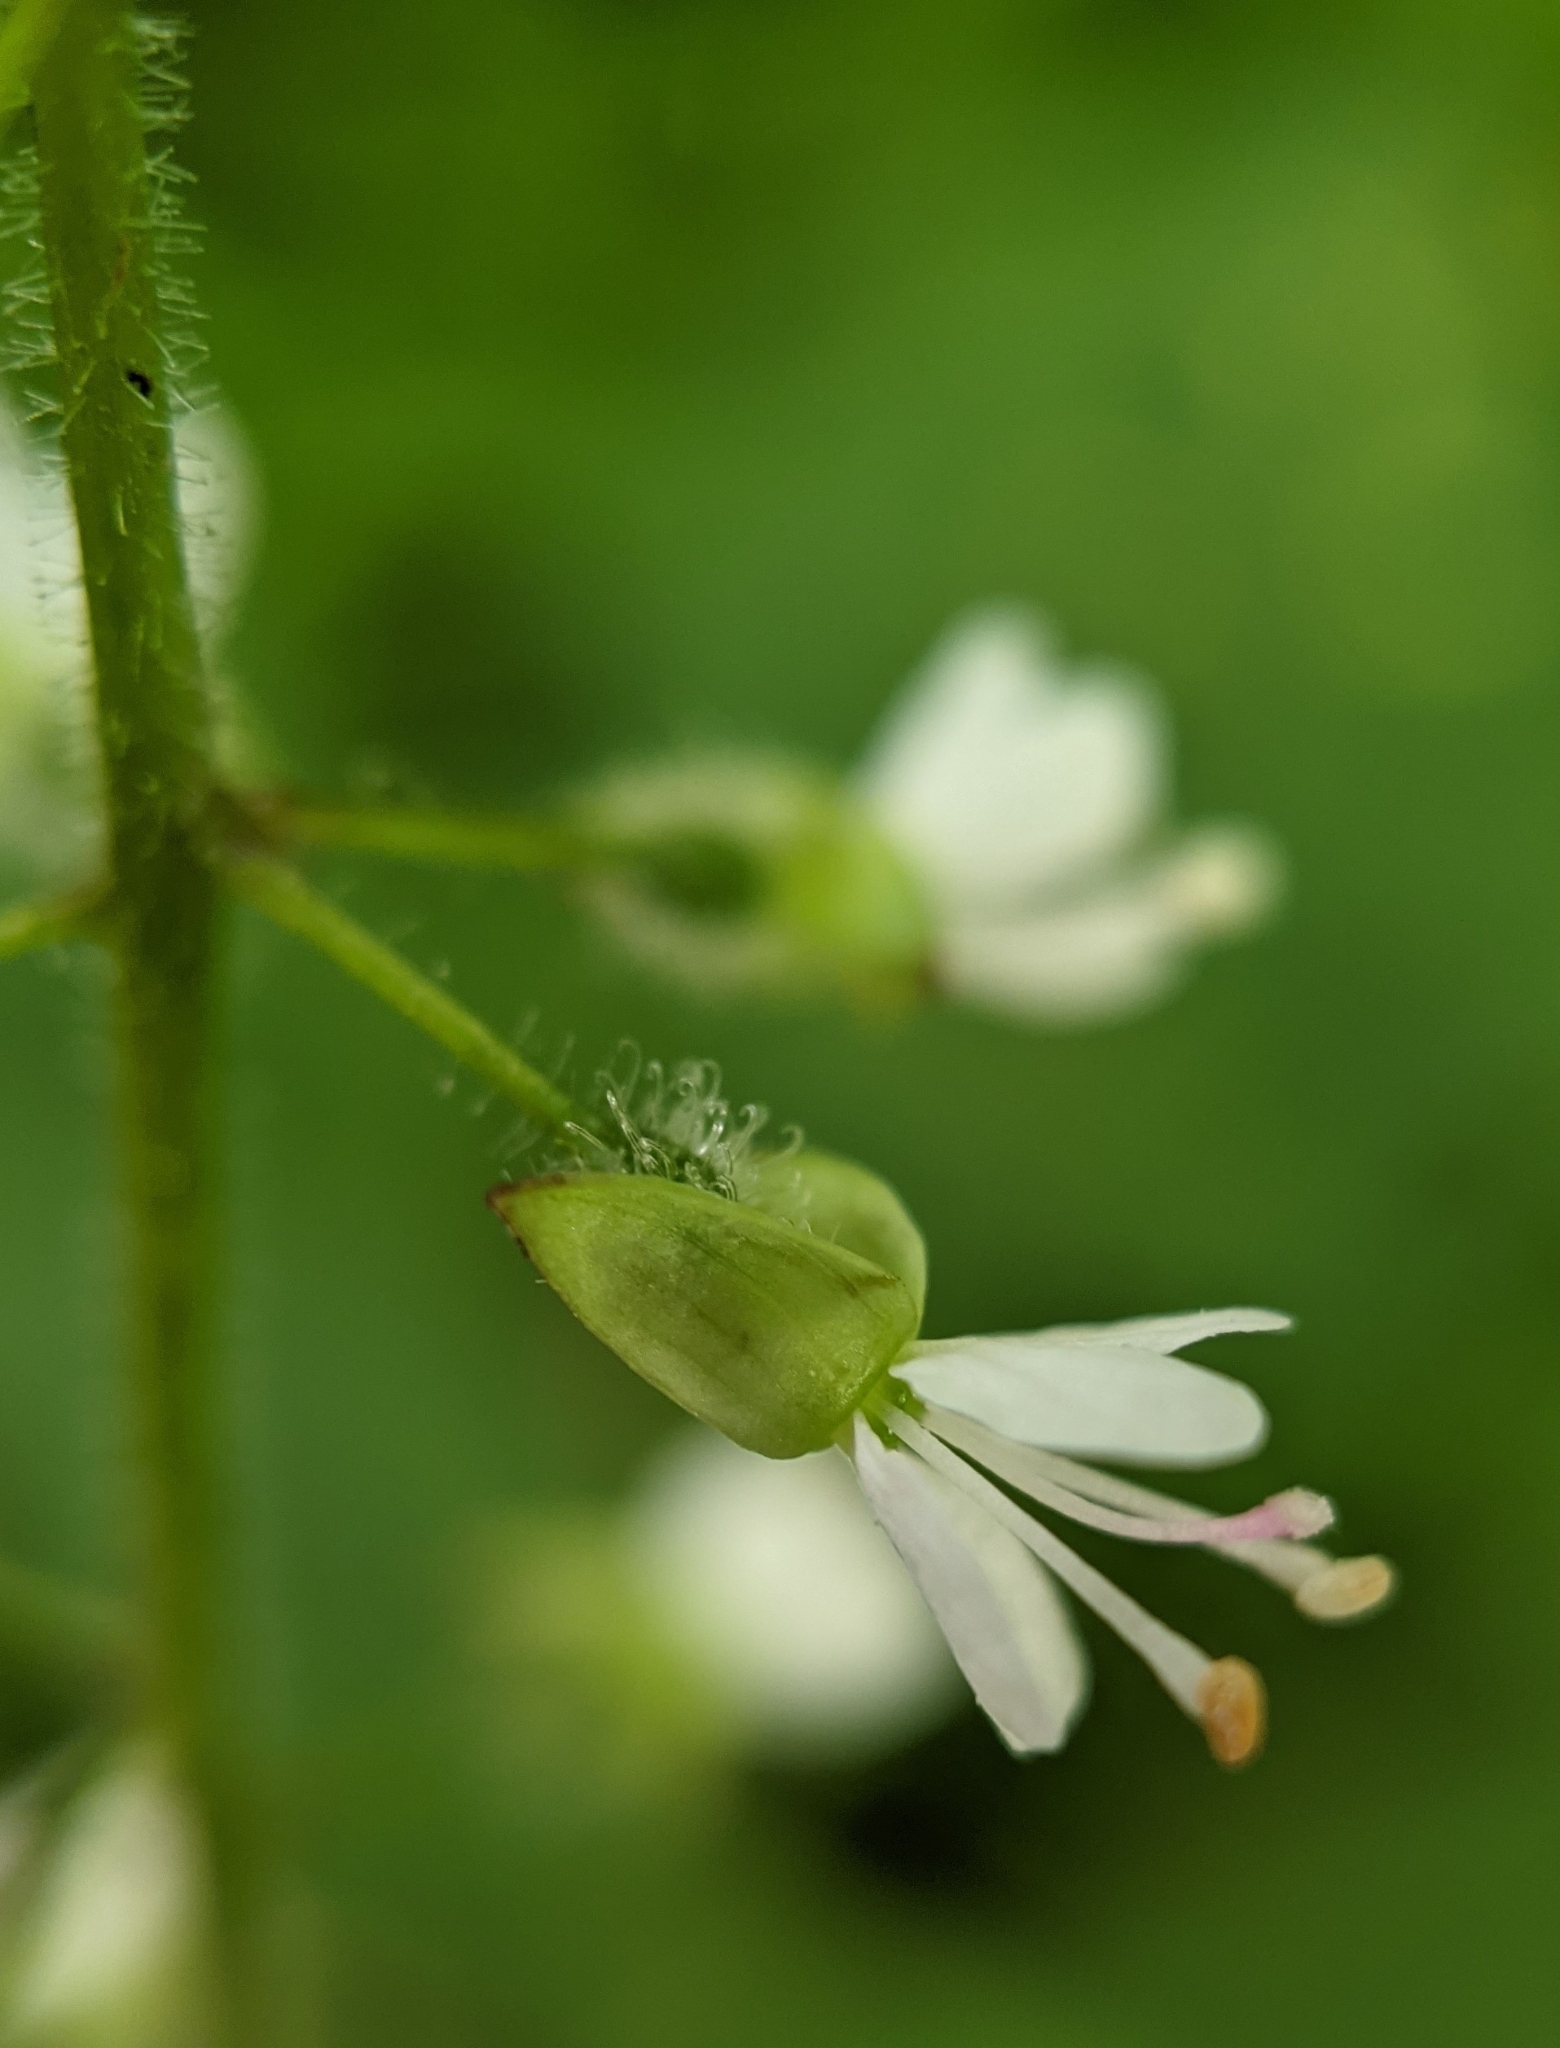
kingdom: Plantae
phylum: Tracheophyta
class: Magnoliopsida
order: Myrtales
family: Onagraceae
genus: Circaea
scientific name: Circaea lutetiana
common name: Enchanter's-nightshade
